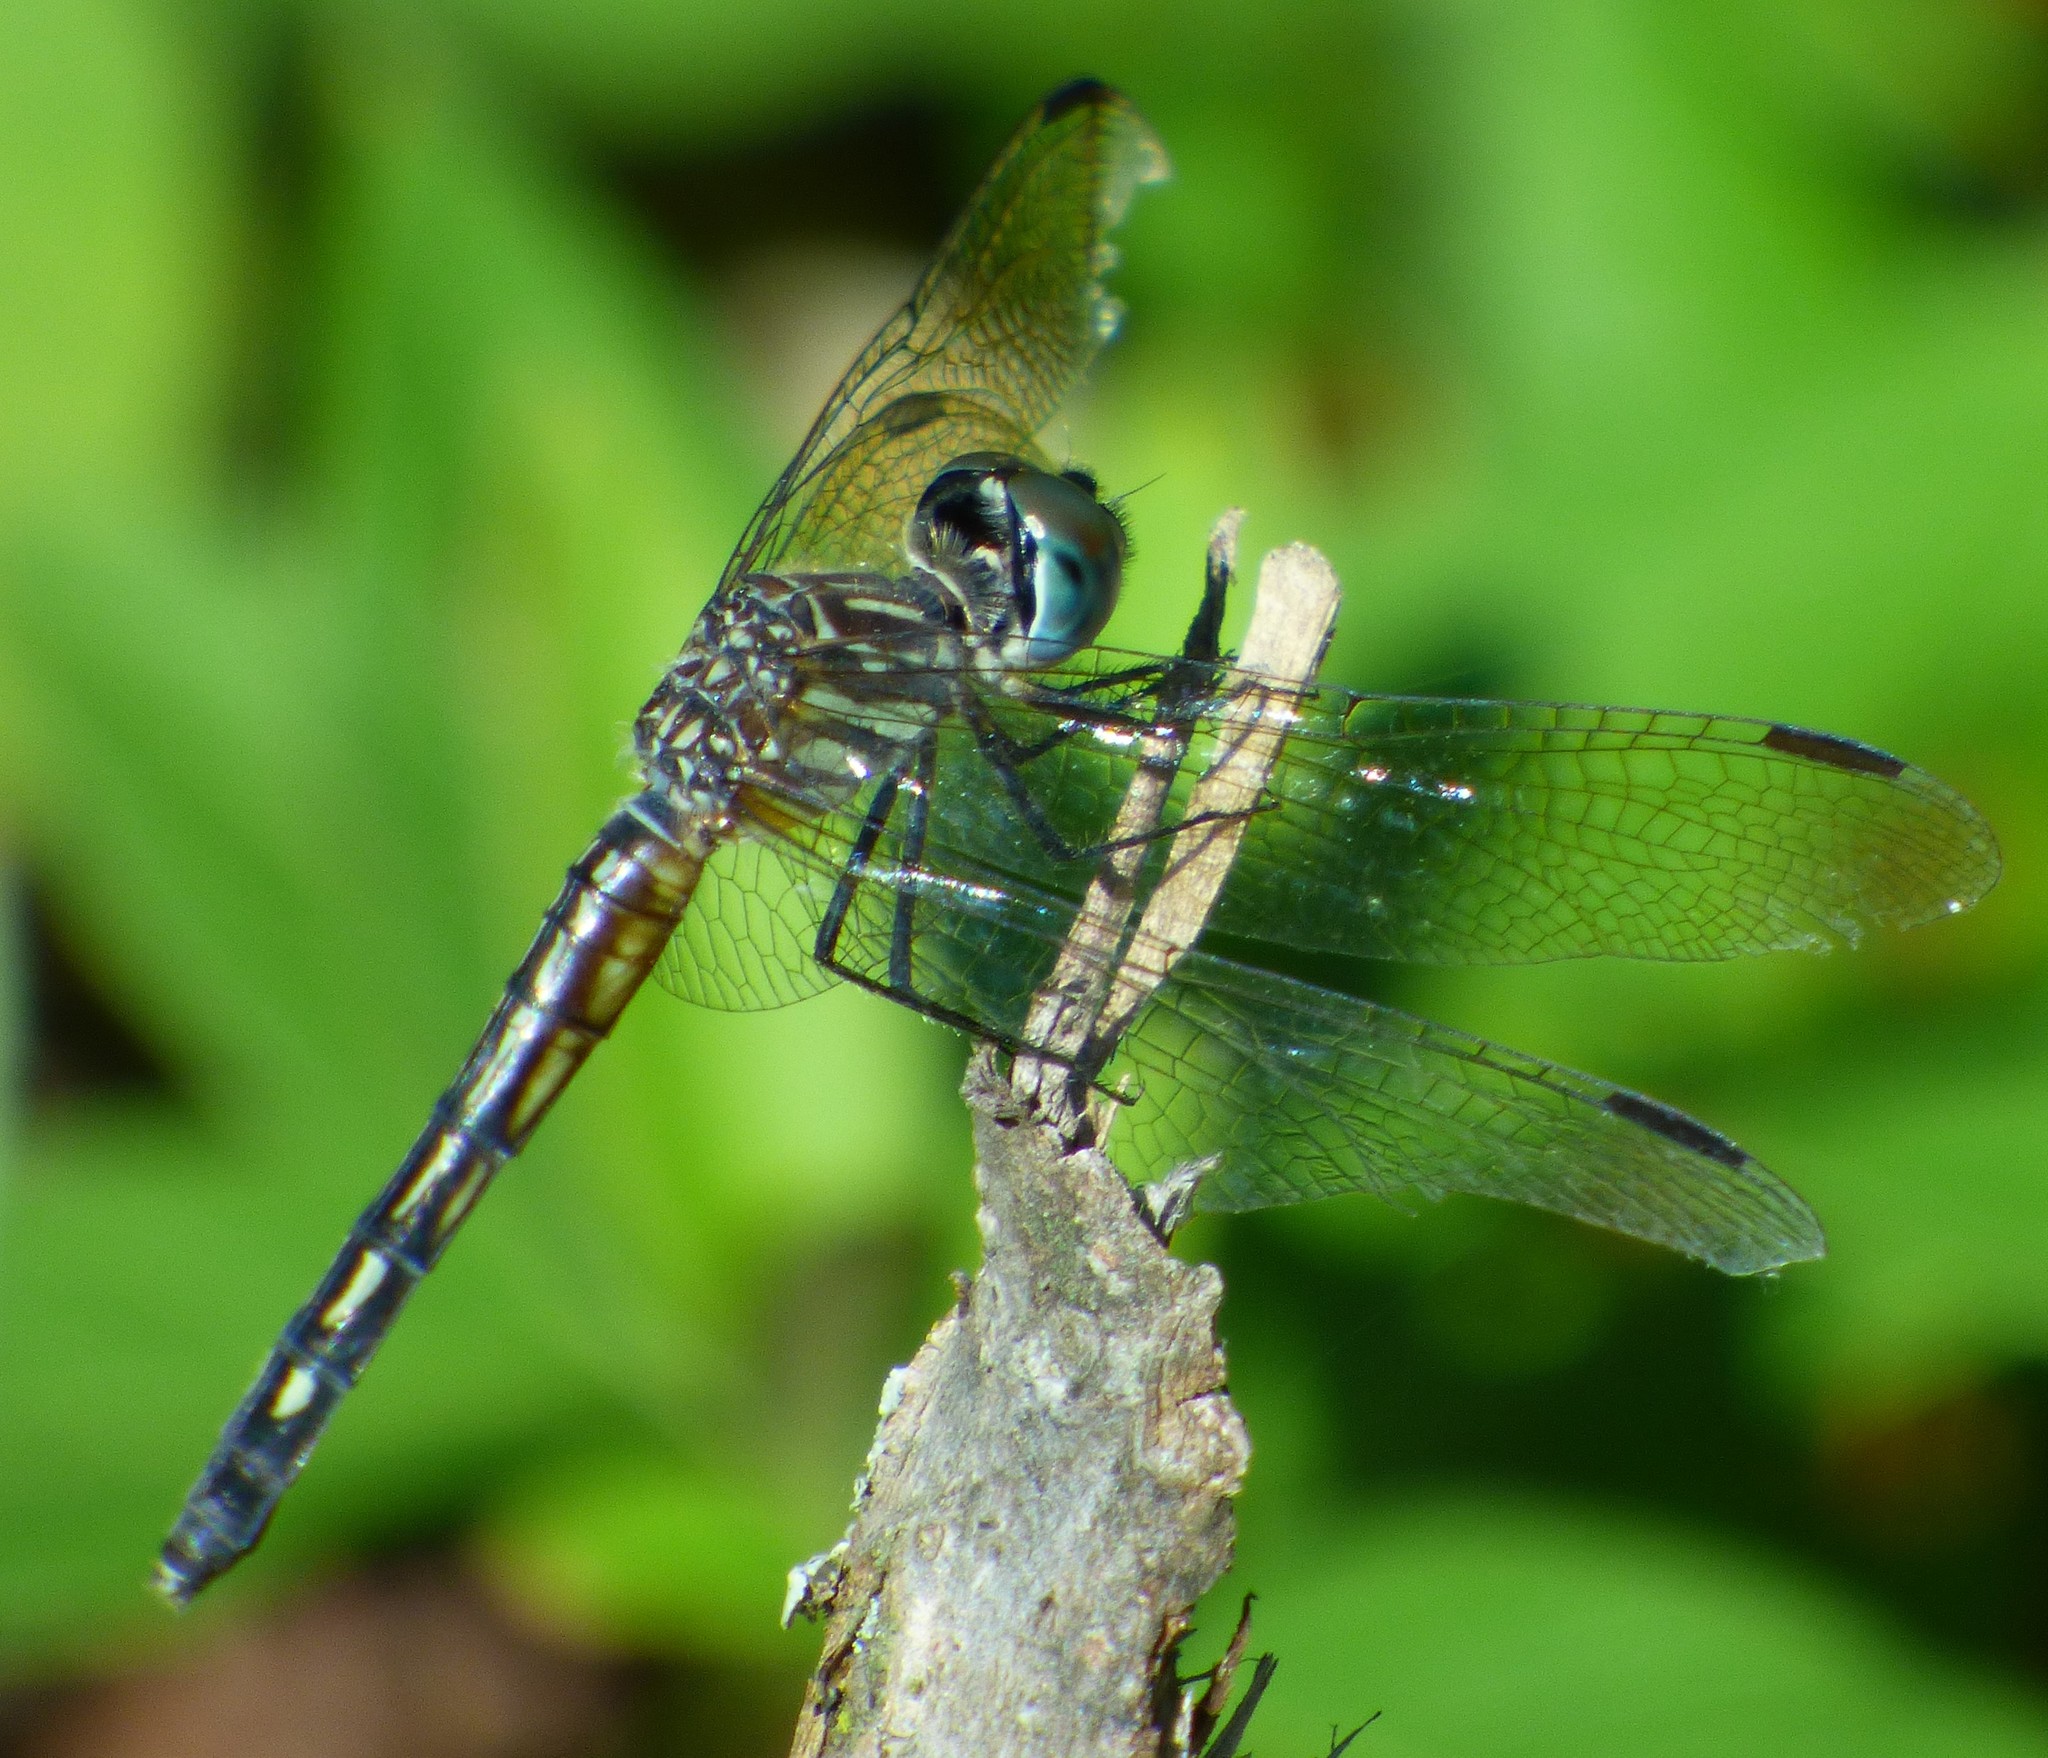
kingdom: Animalia
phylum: Arthropoda
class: Insecta
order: Odonata
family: Libellulidae
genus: Pachydiplax
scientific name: Pachydiplax longipennis
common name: Blue dasher
